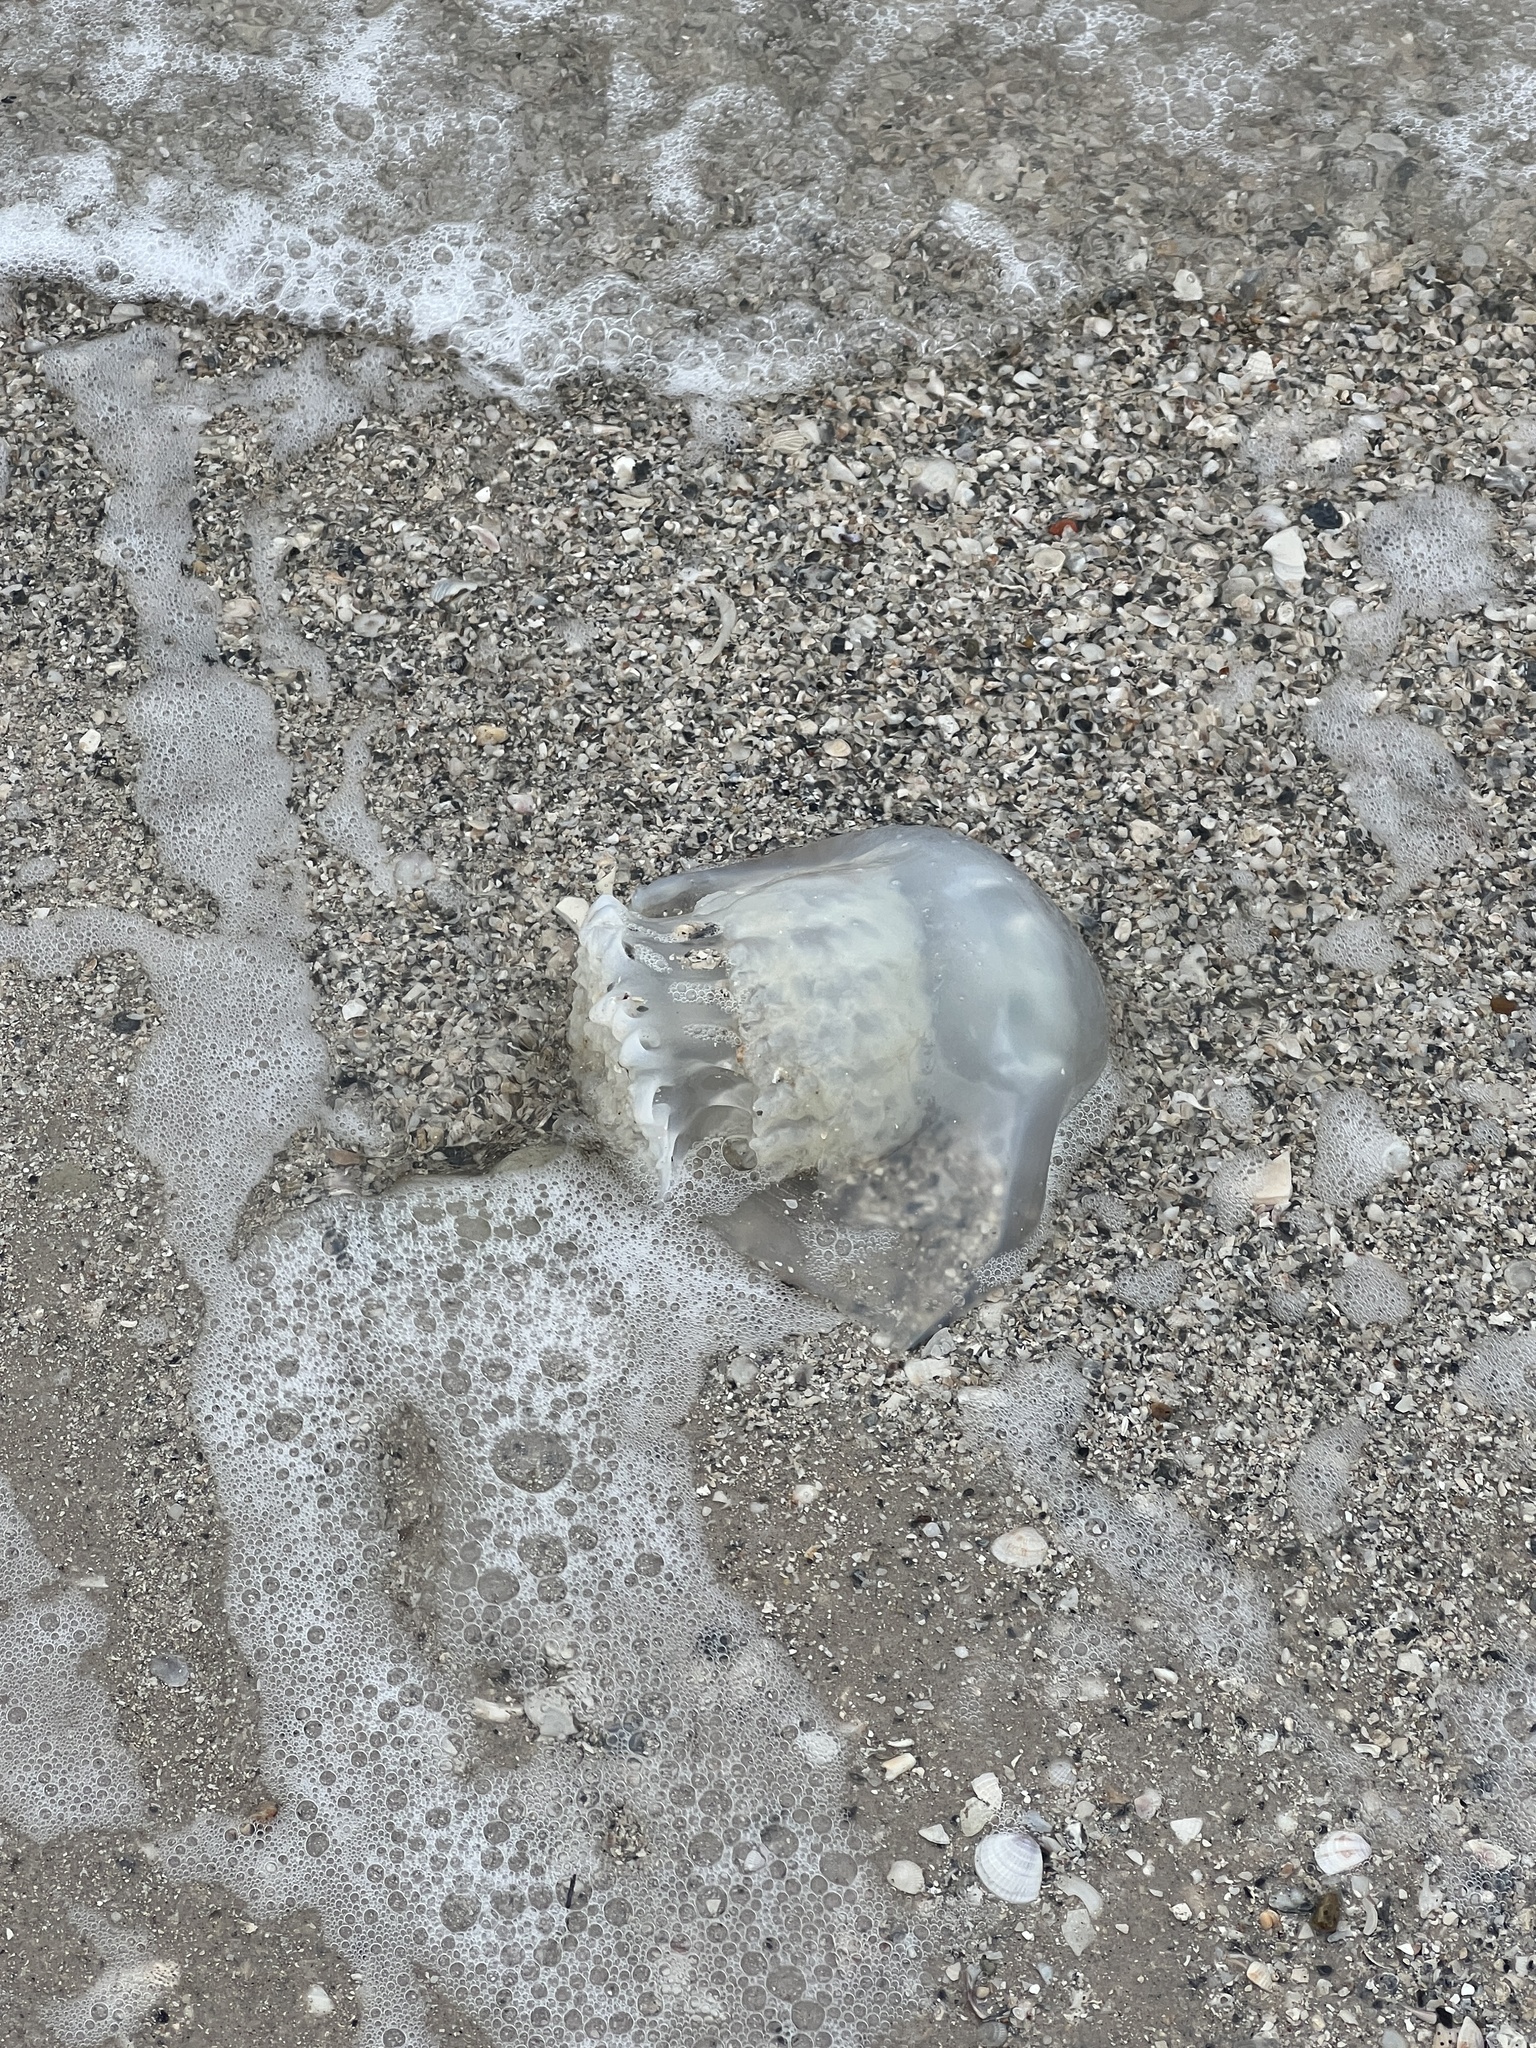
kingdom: Animalia
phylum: Cnidaria
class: Scyphozoa
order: Rhizostomeae
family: Stomolophidae
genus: Stomolophus
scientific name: Stomolophus meleagris
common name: Cabbagehead
